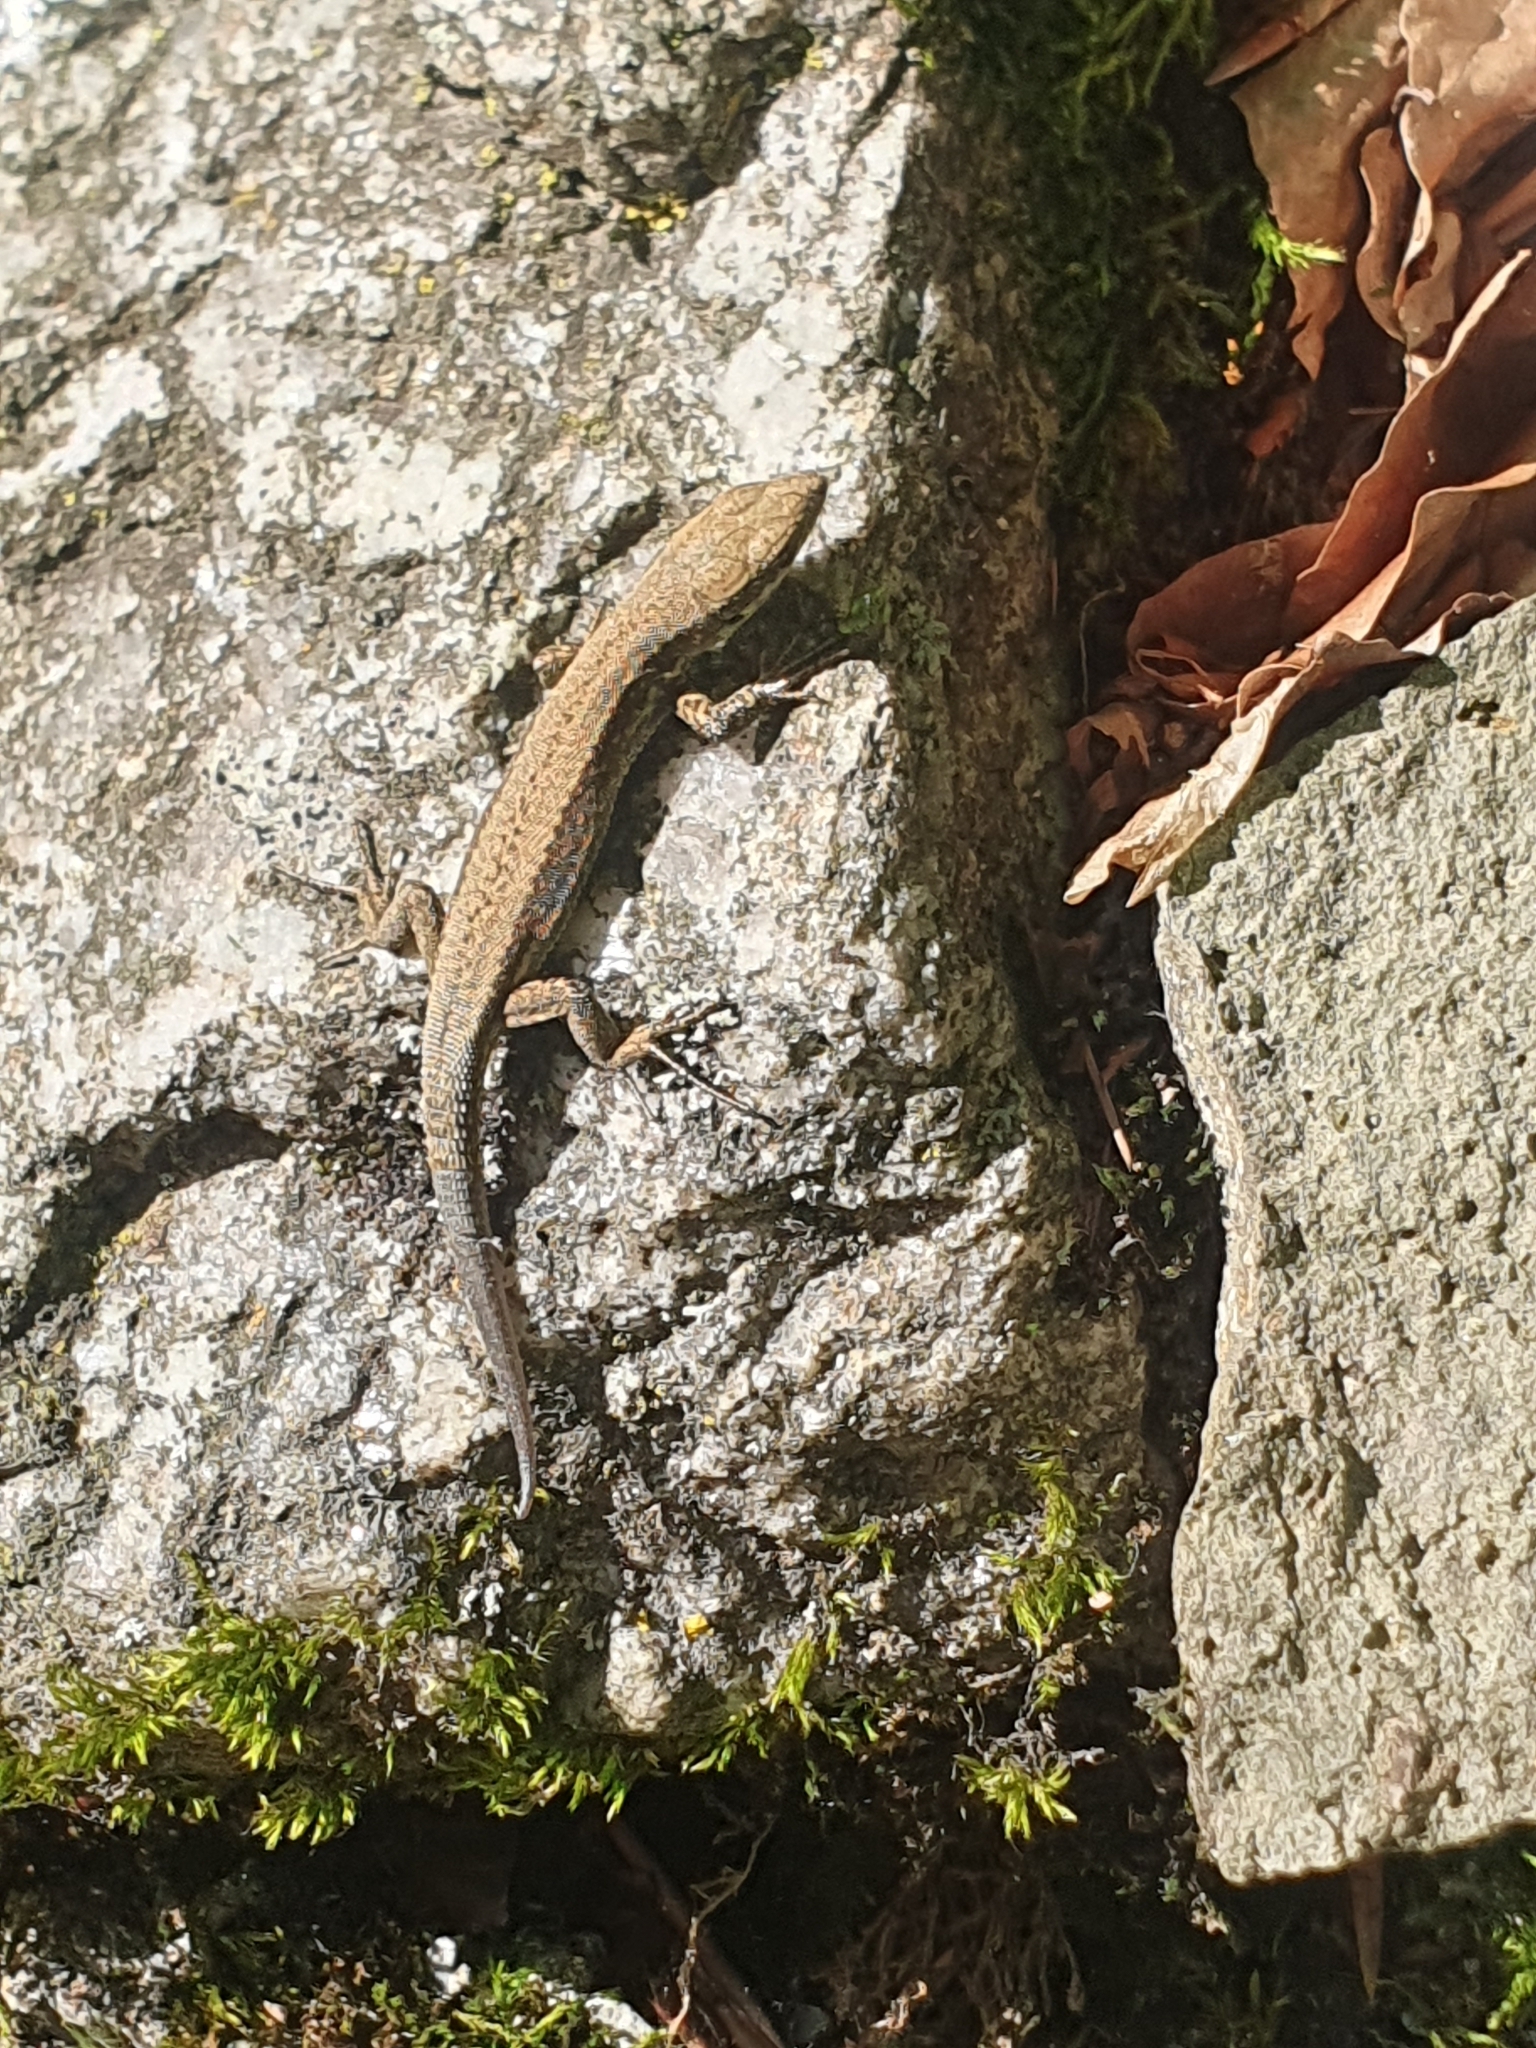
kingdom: Animalia
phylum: Chordata
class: Squamata
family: Lacertidae
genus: Podarcis
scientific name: Podarcis muralis
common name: Common wall lizard
